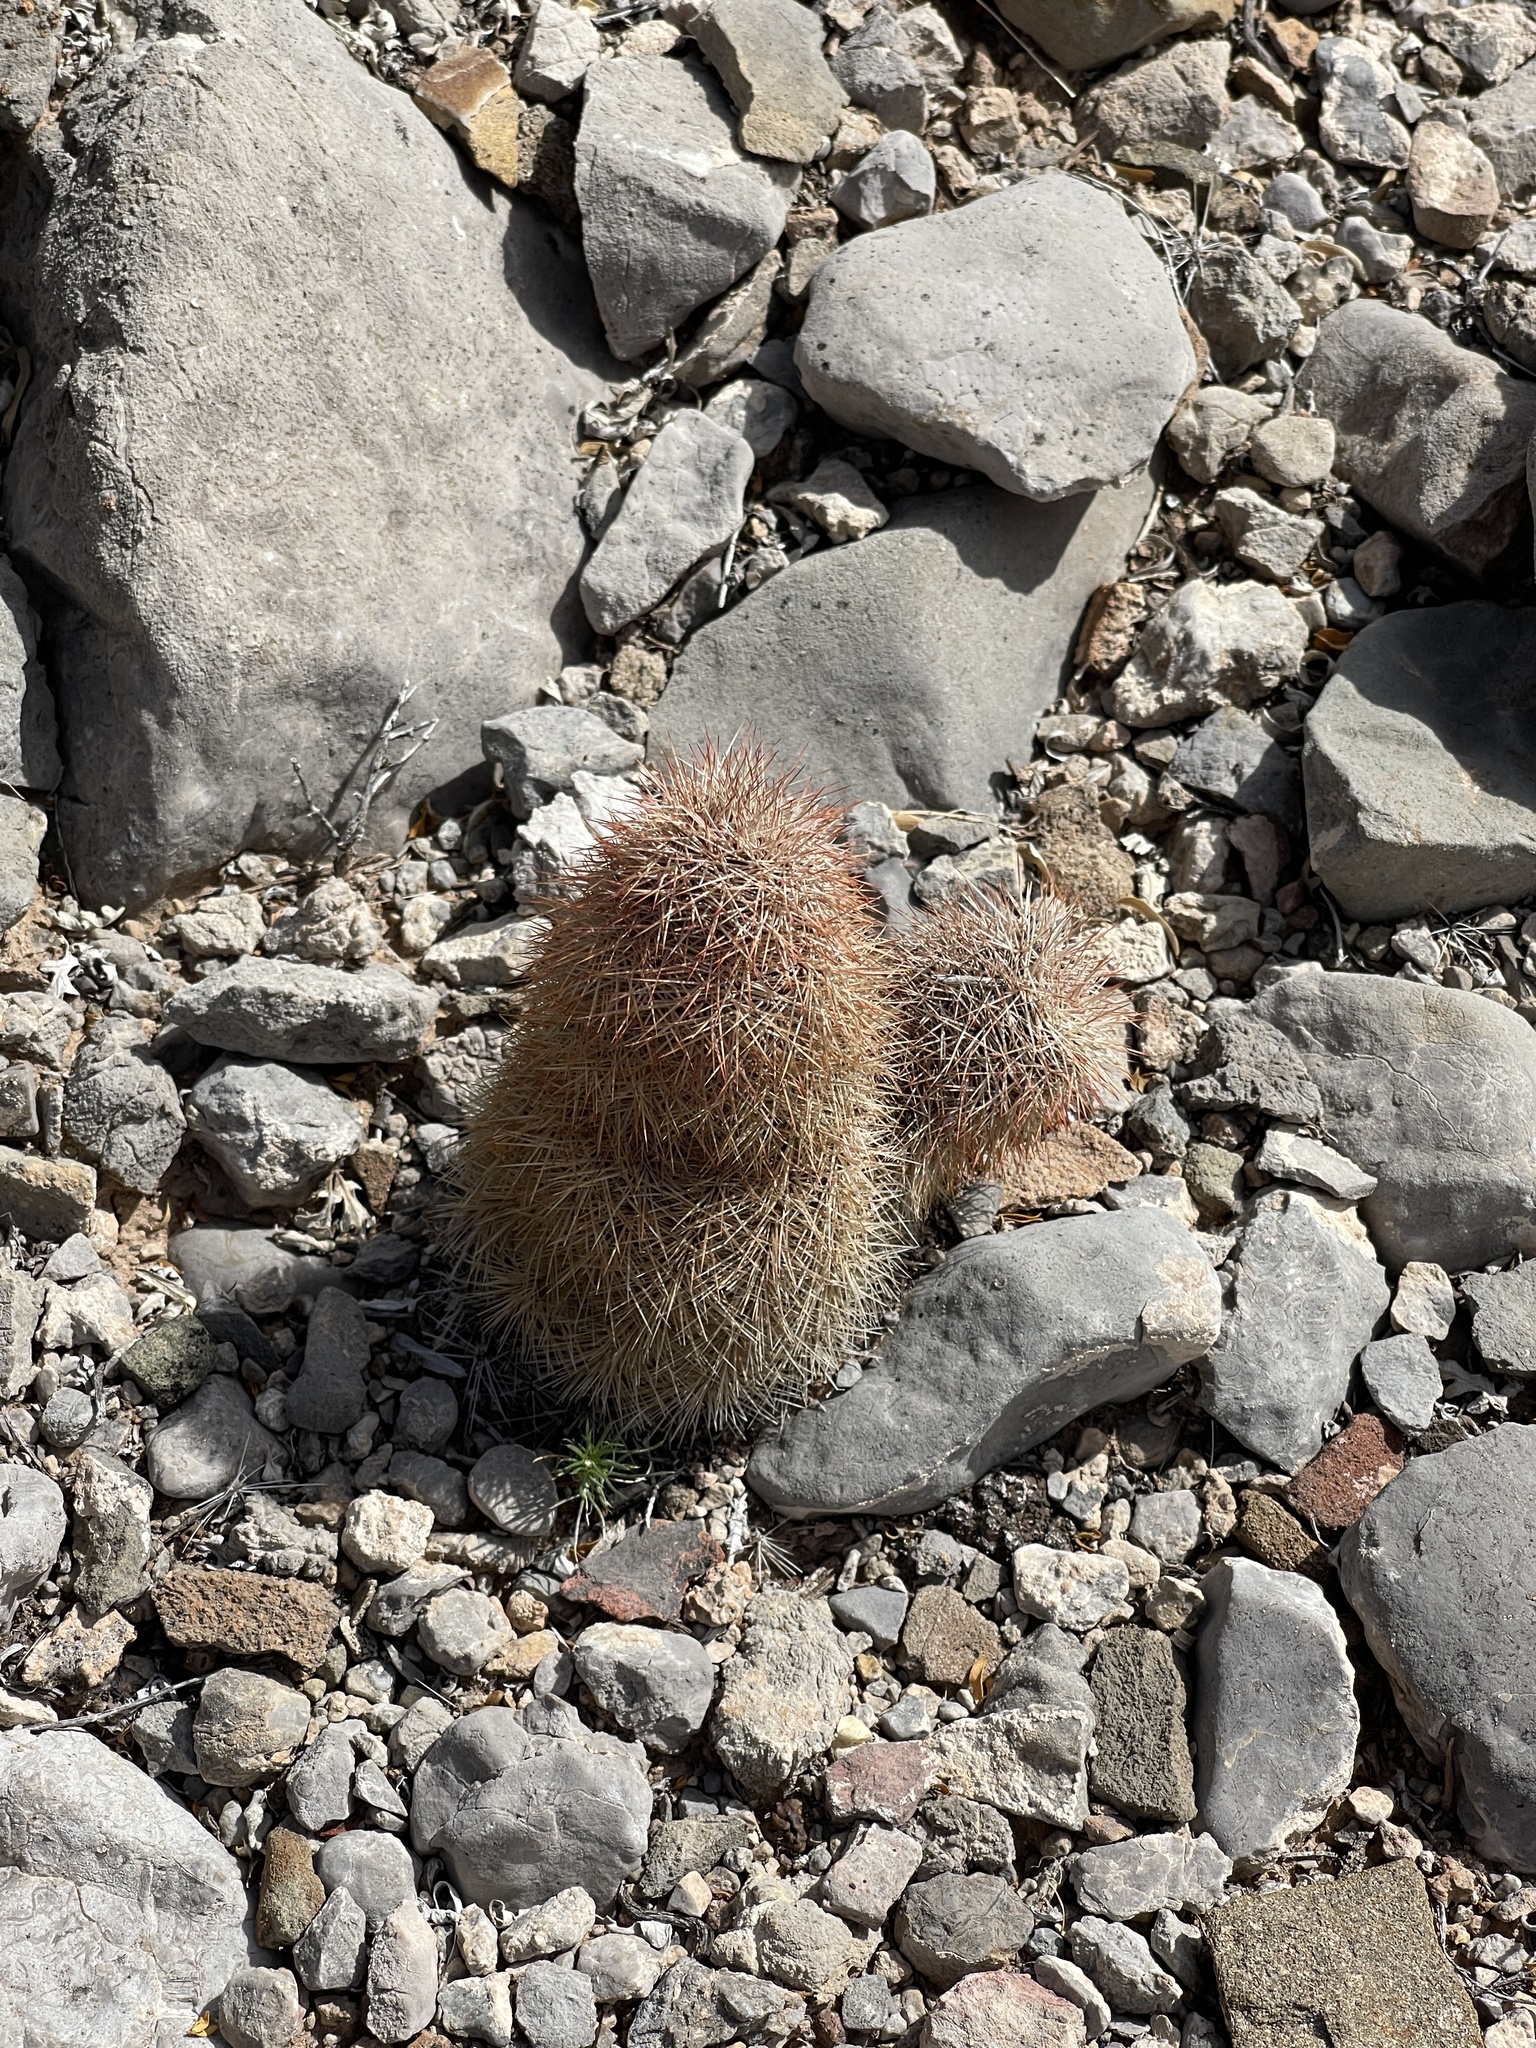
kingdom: Plantae
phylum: Tracheophyta
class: Magnoliopsida
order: Caryophyllales
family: Cactaceae
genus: Echinocereus
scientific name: Echinocereus dasyacanthus
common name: Spiny hedgehog cactus
